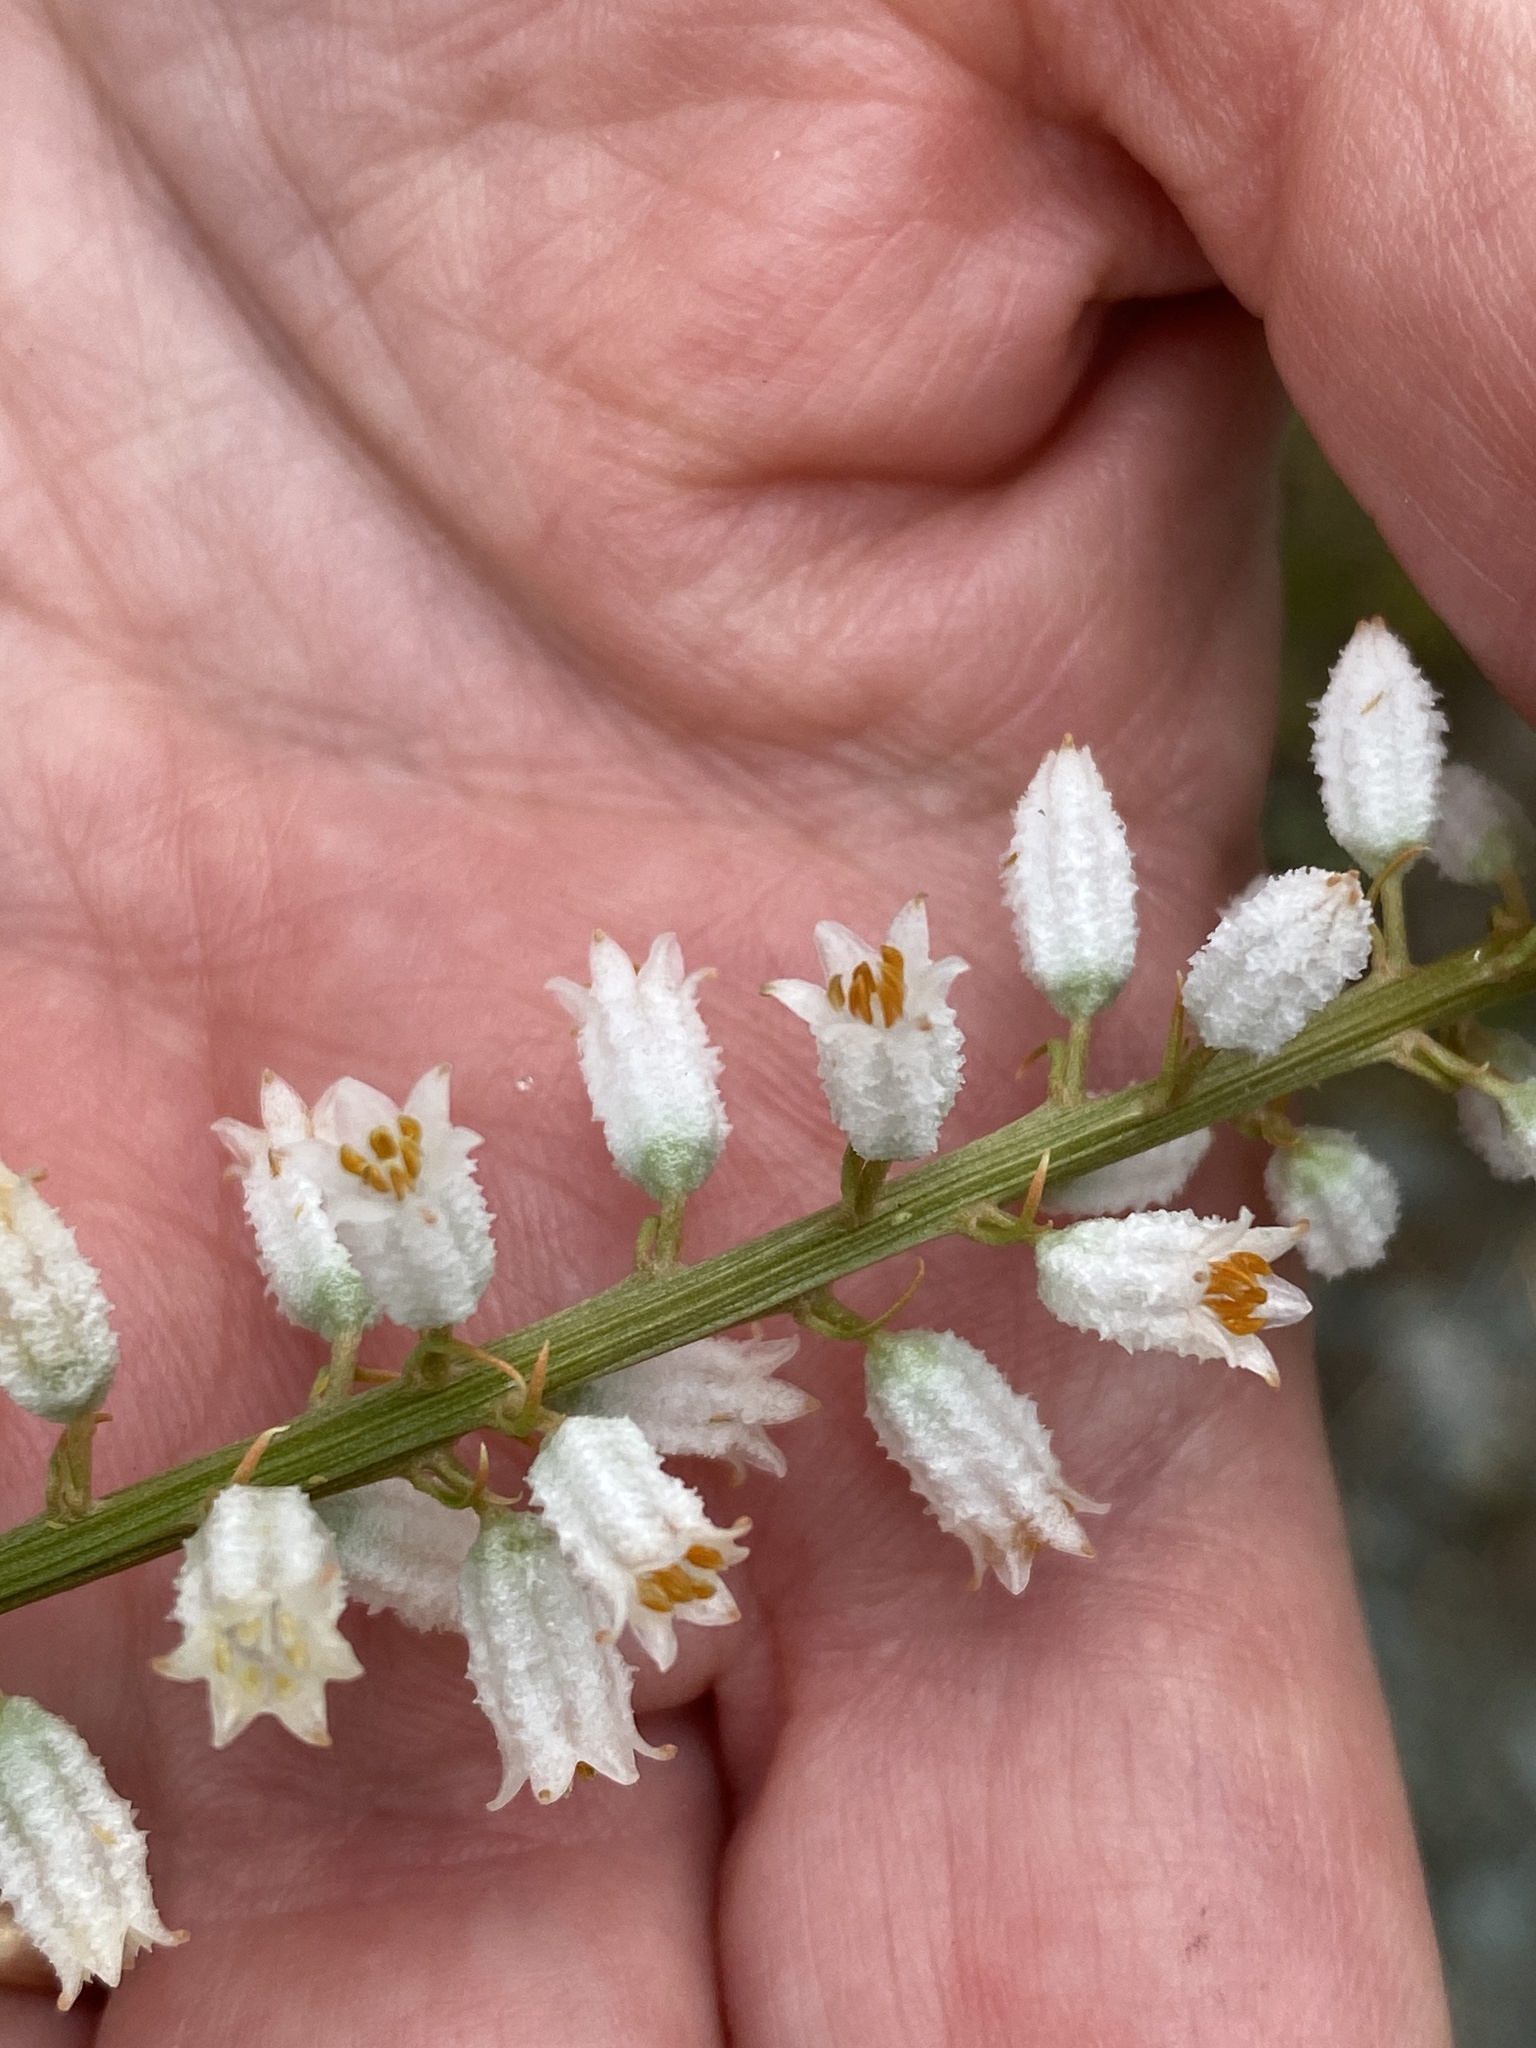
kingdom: Plantae
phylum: Tracheophyta
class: Liliopsida
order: Dioscoreales
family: Nartheciaceae
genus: Aletris
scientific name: Aletris farinosa
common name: Colicroot
